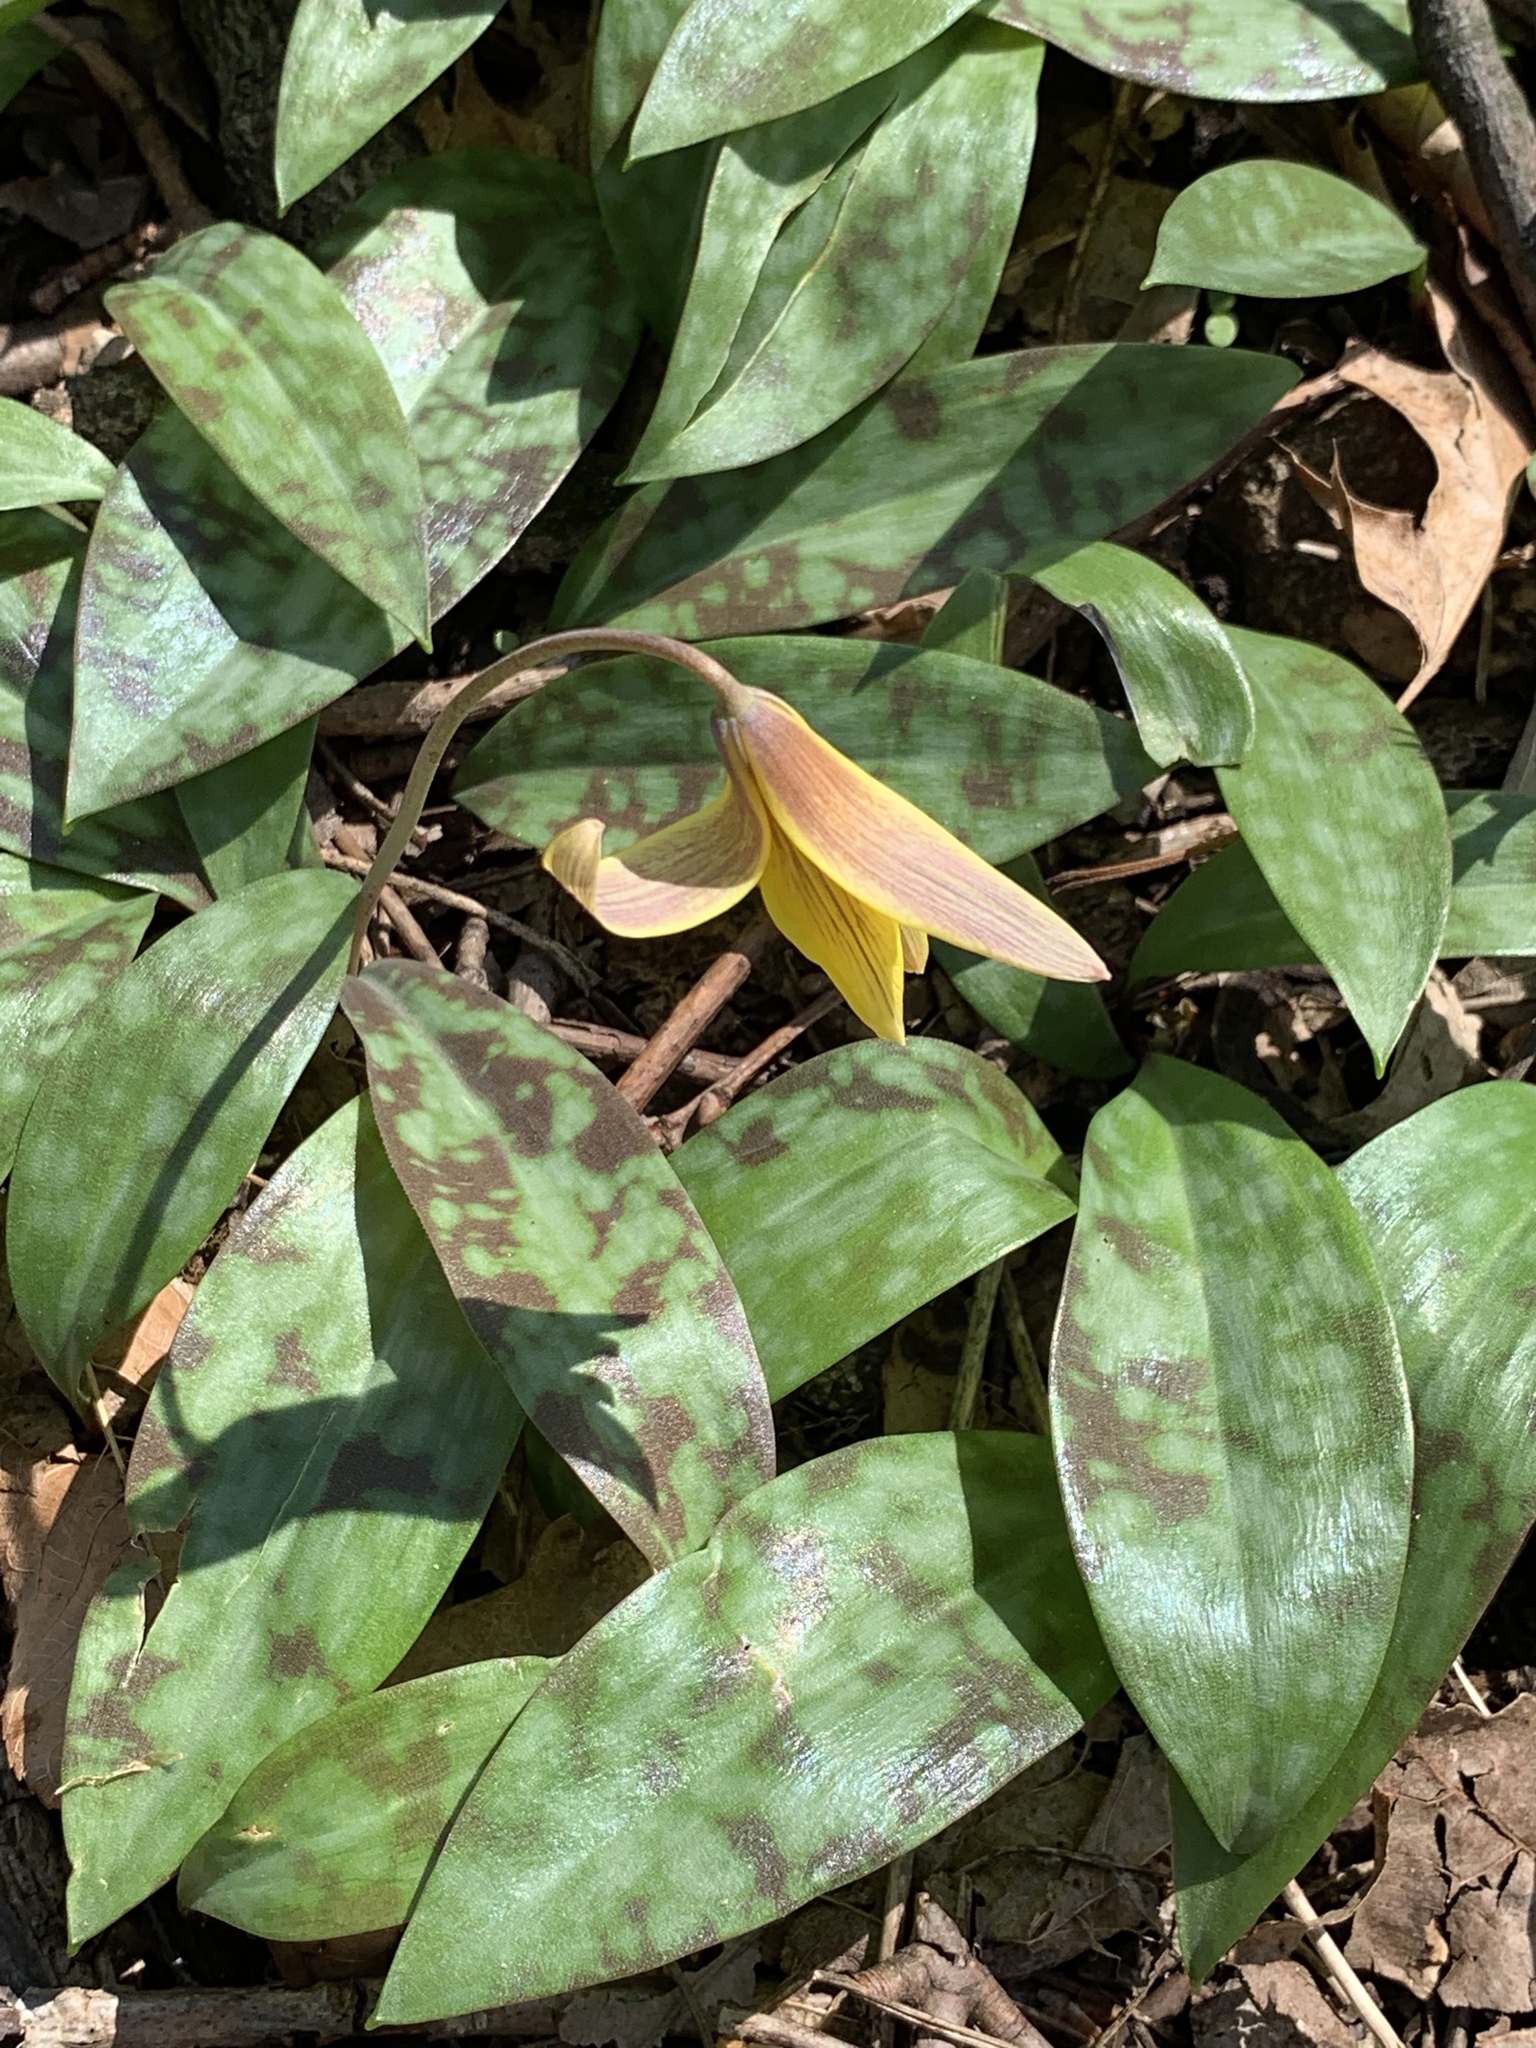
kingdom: Plantae
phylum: Tracheophyta
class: Liliopsida
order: Liliales
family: Liliaceae
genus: Erythronium
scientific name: Erythronium americanum
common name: Yellow adder's-tongue
